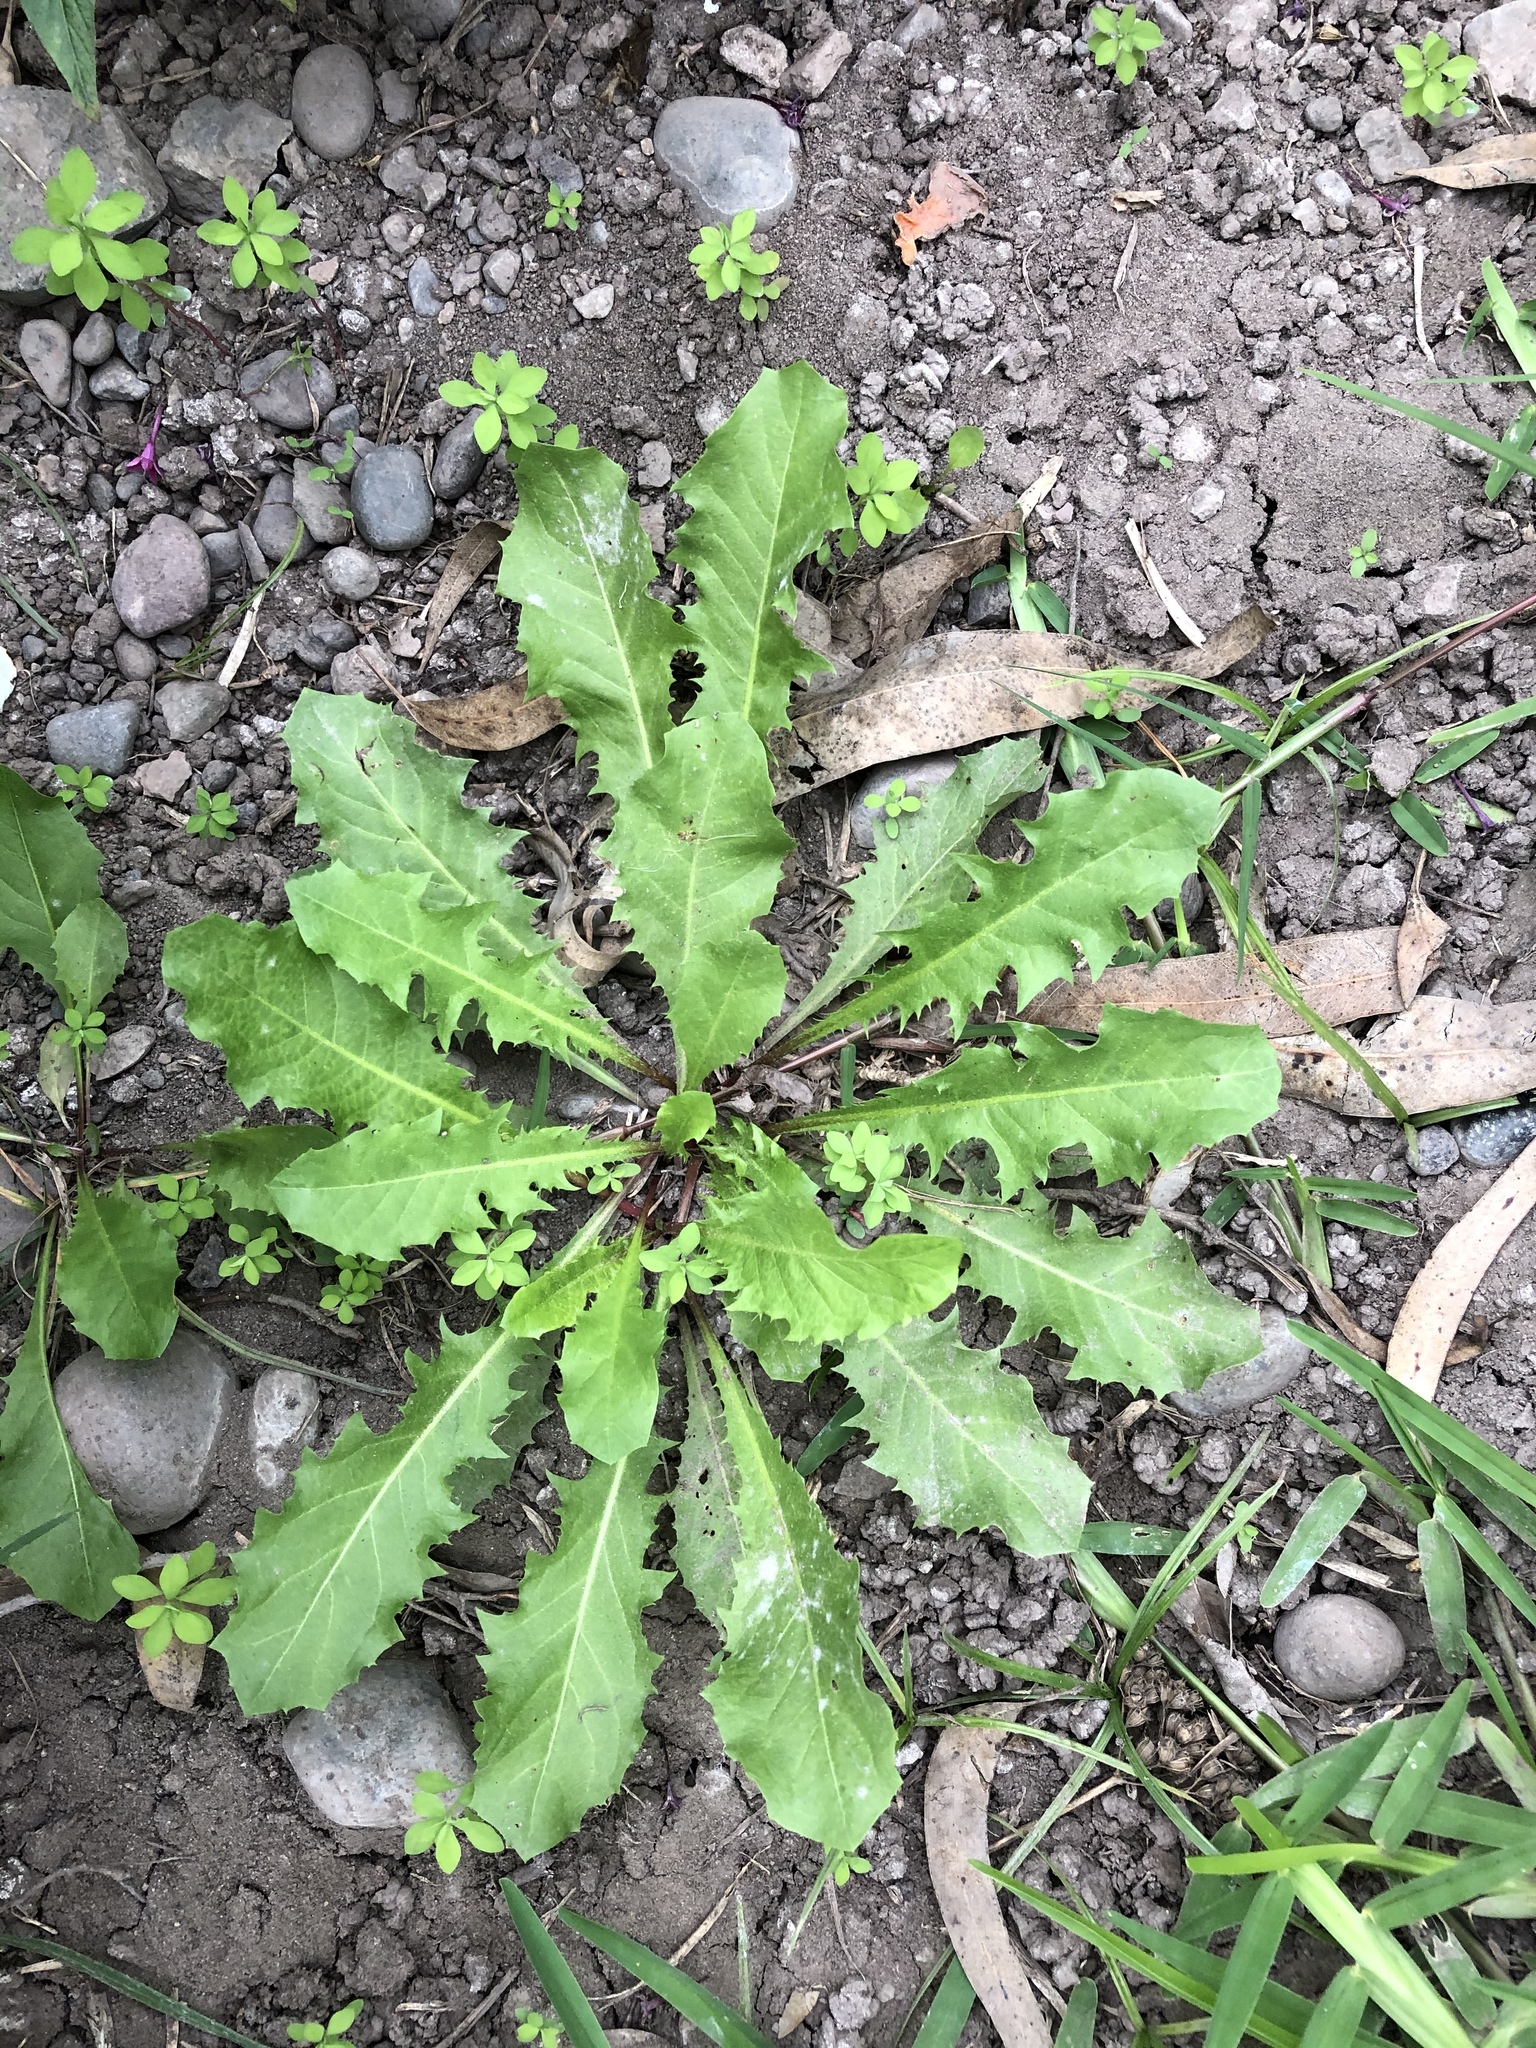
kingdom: Plantae
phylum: Tracheophyta
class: Magnoliopsida
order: Asterales
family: Asteraceae
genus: Taraxacum
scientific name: Taraxacum officinale
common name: Common dandelion
